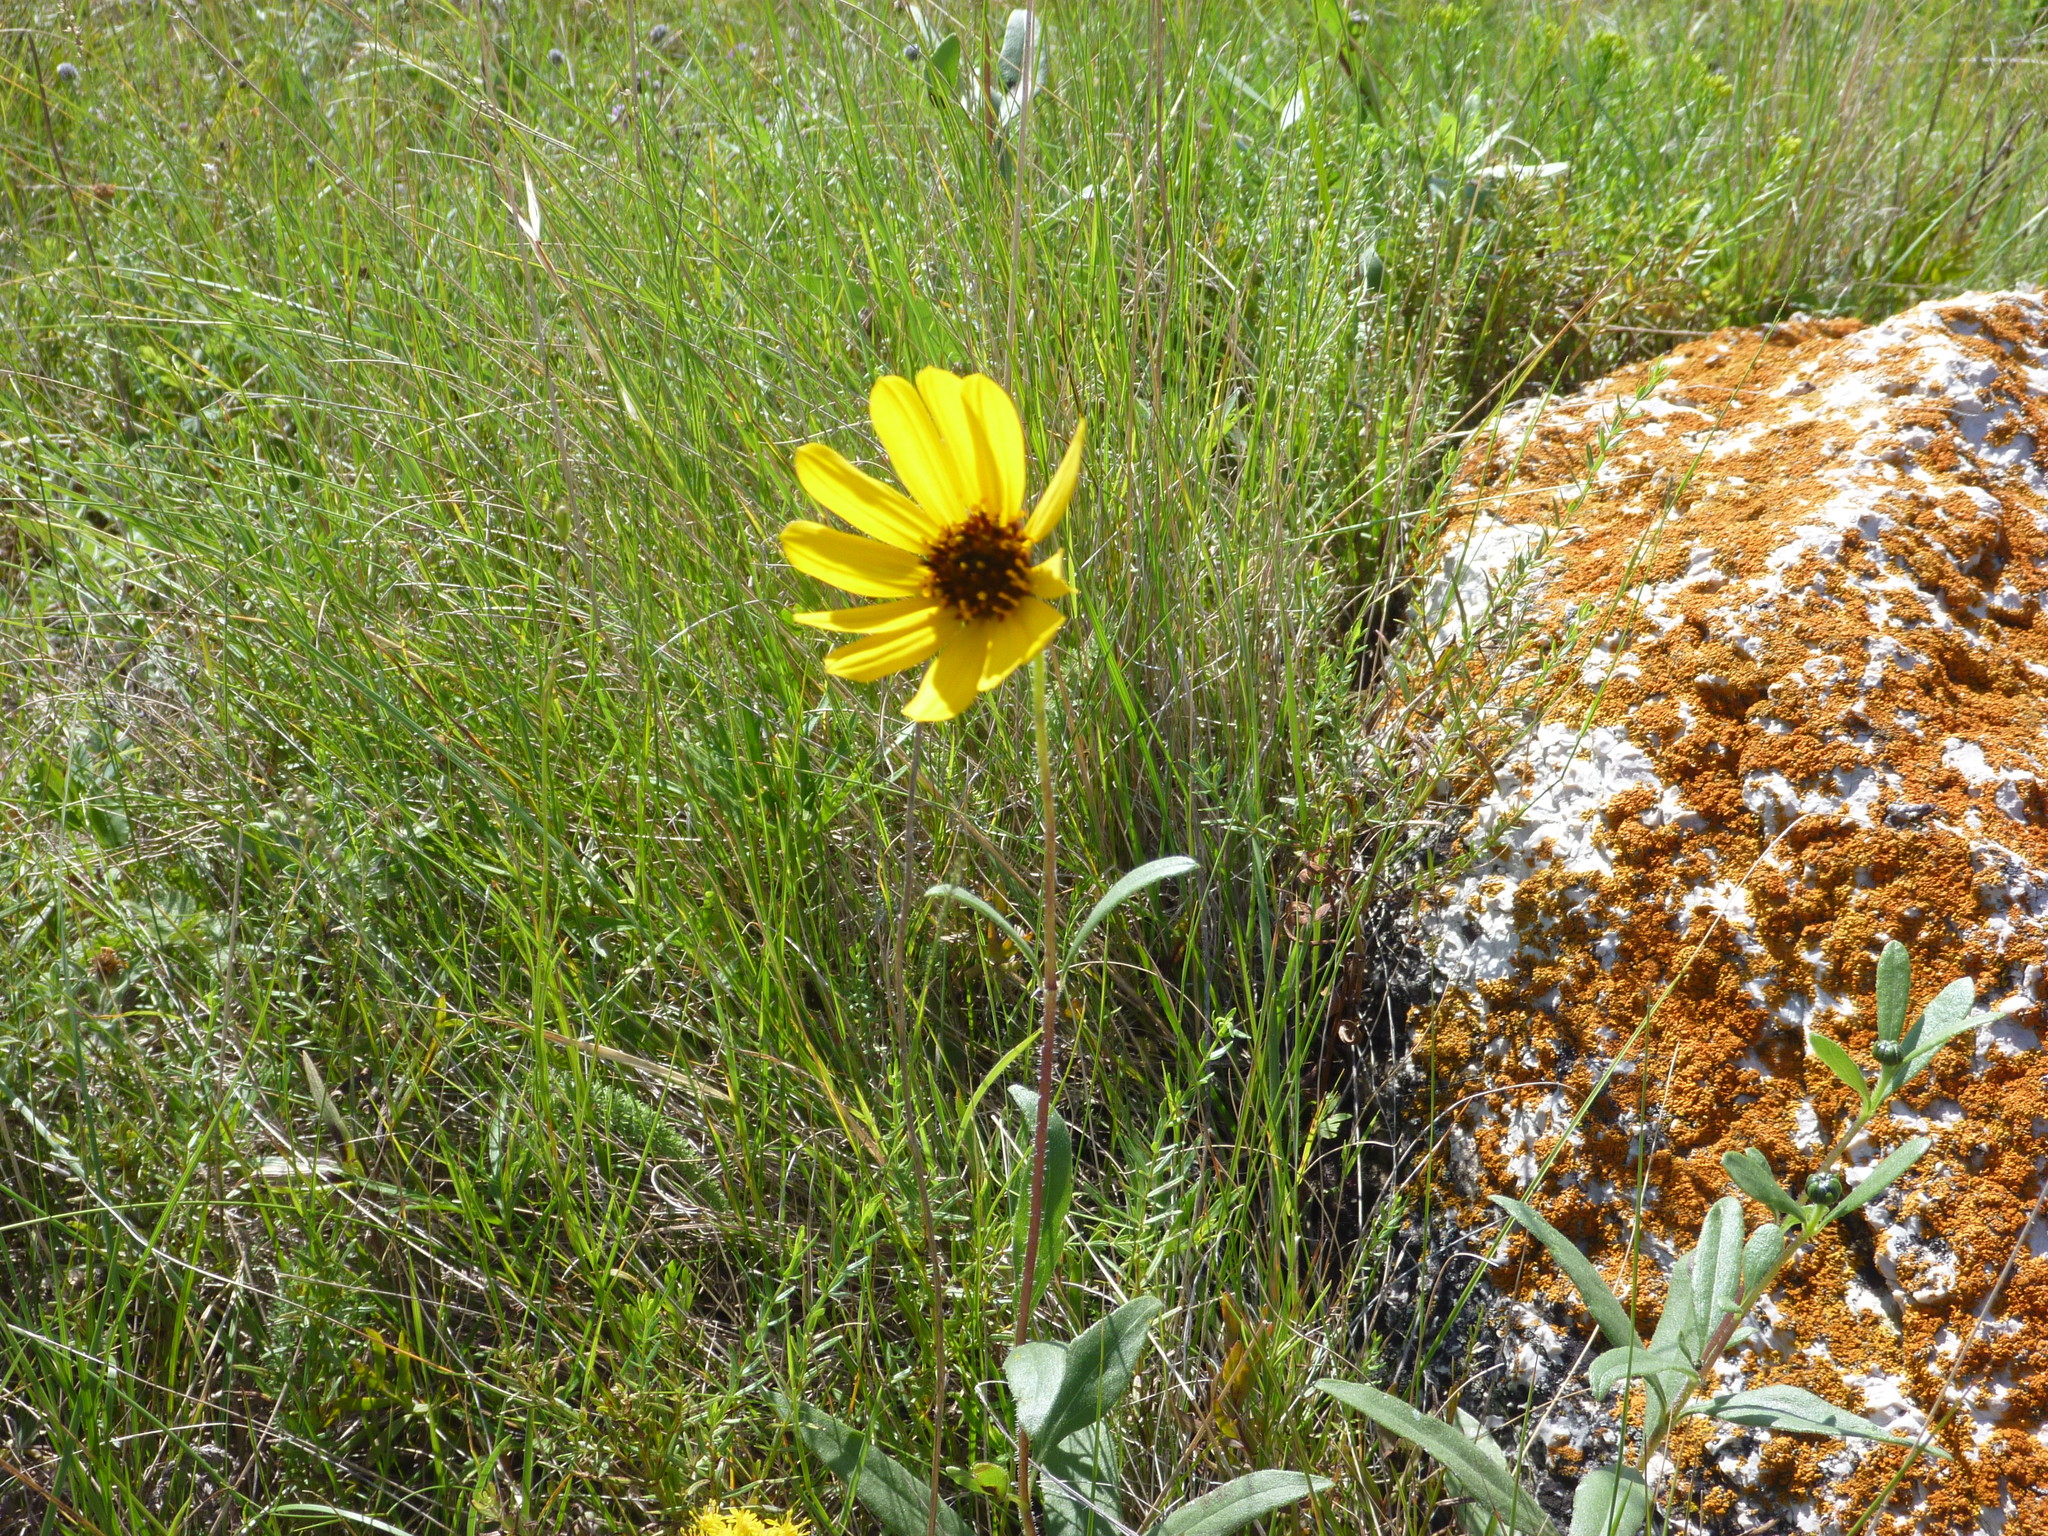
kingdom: Plantae
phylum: Tracheophyta
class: Magnoliopsida
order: Asterales
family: Asteraceae
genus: Helianthus
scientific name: Helianthus pauciflorus
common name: Stiff sunflower
